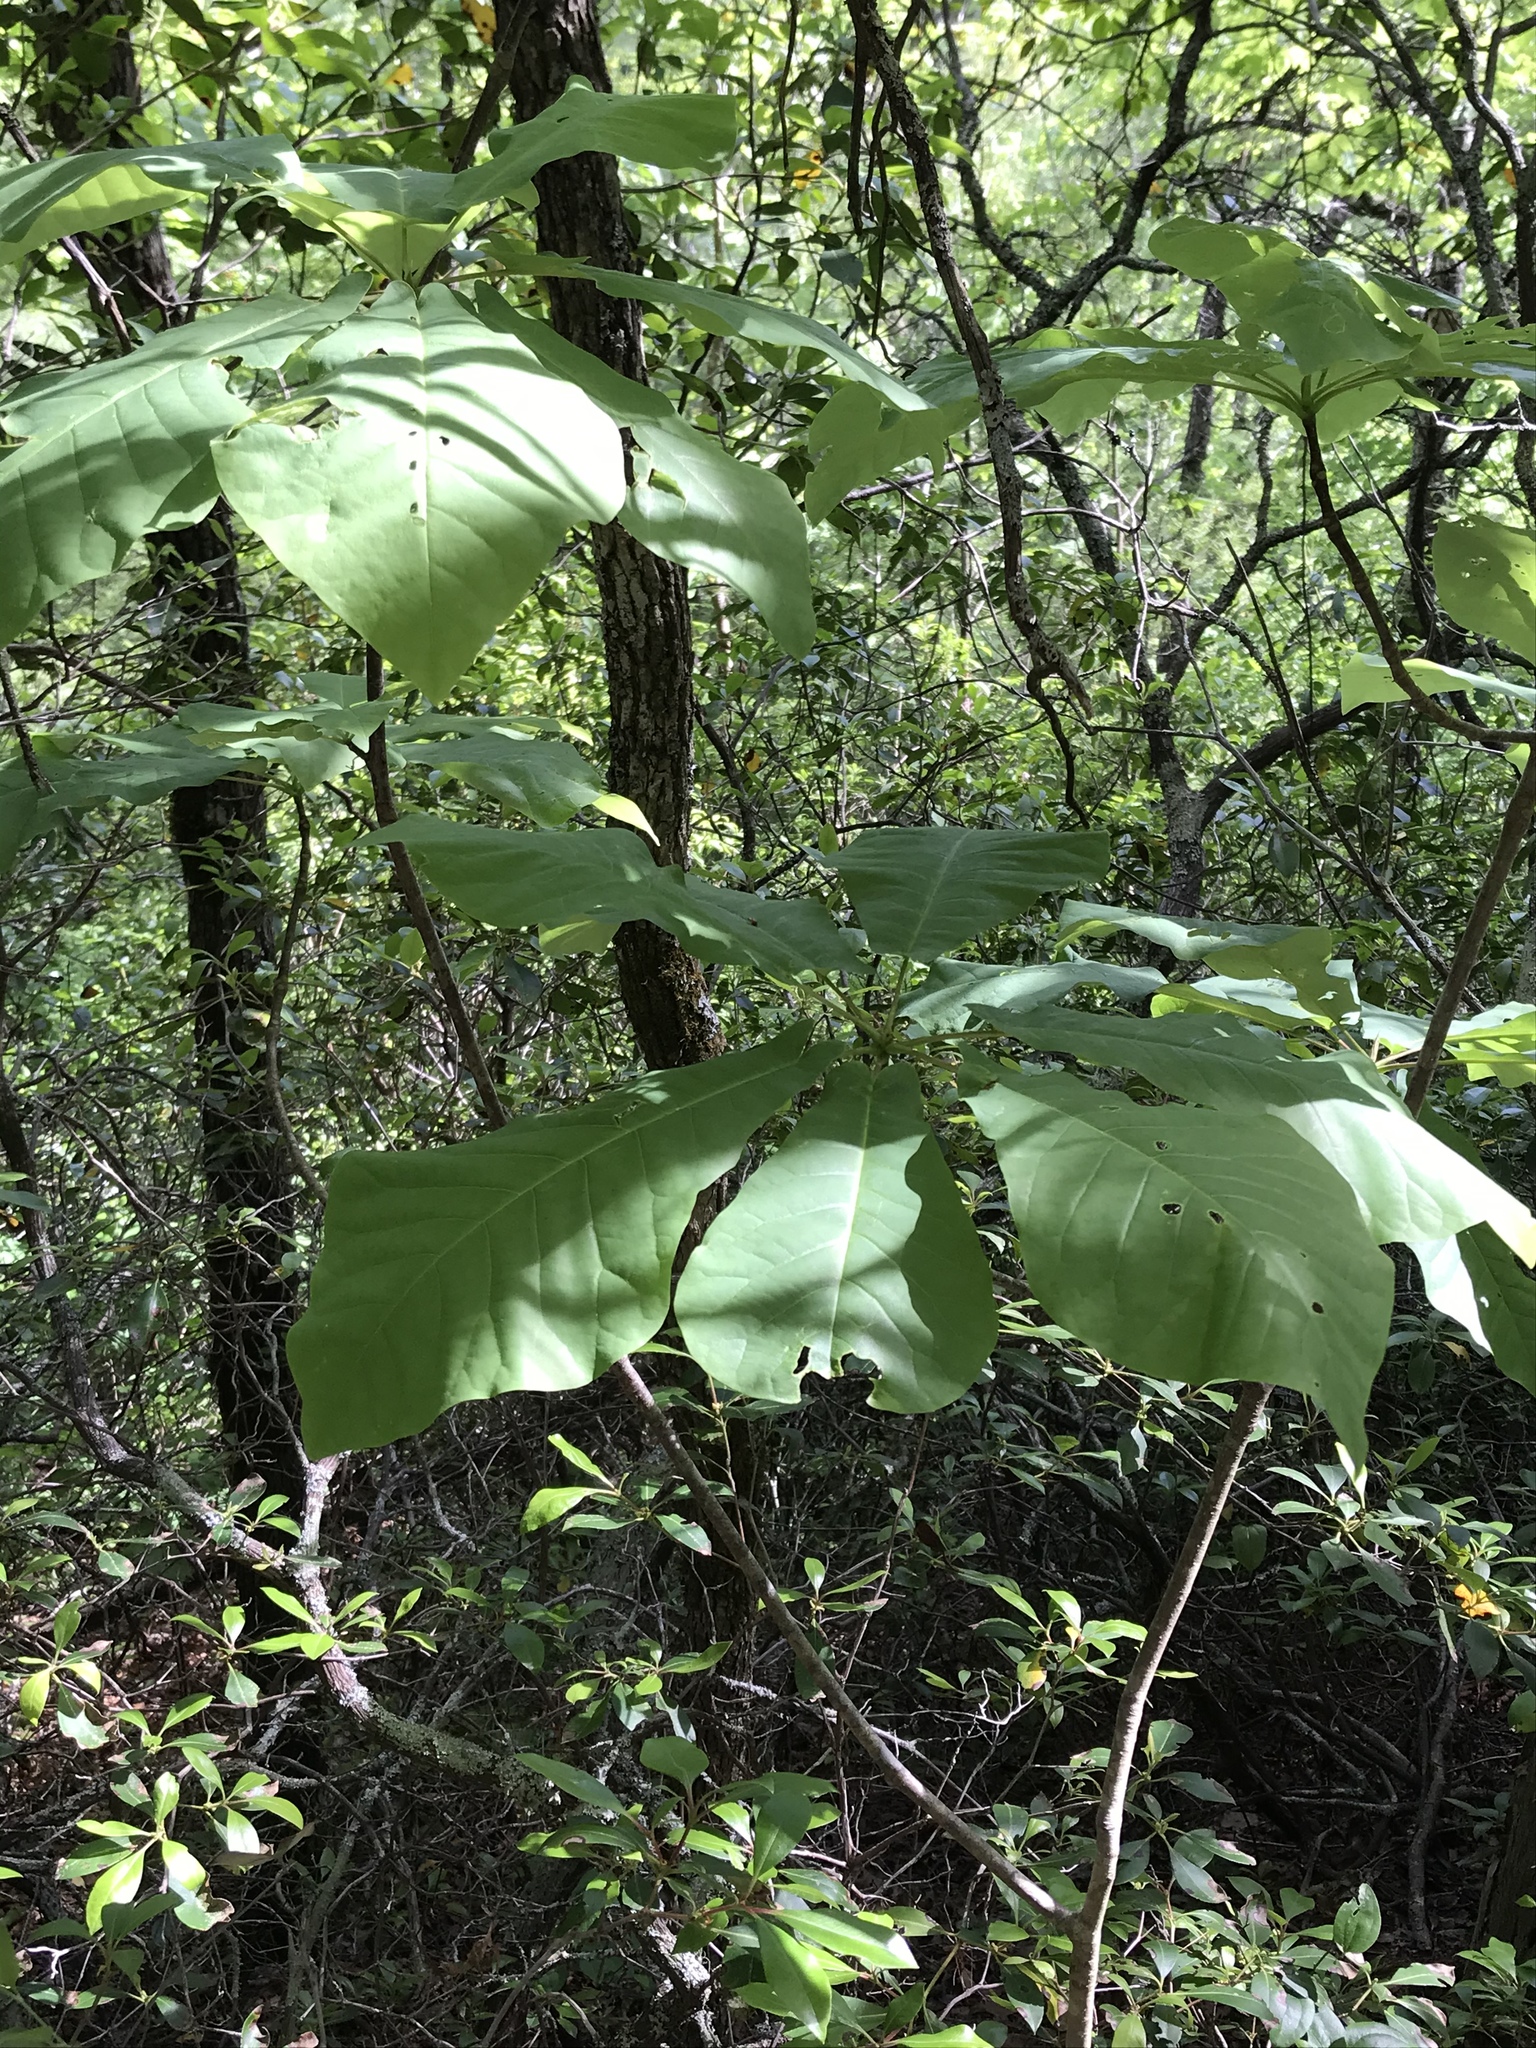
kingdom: Plantae
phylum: Tracheophyta
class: Magnoliopsida
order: Magnoliales
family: Magnoliaceae
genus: Magnolia
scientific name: Magnolia fraseri
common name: Fraser's magnolia
